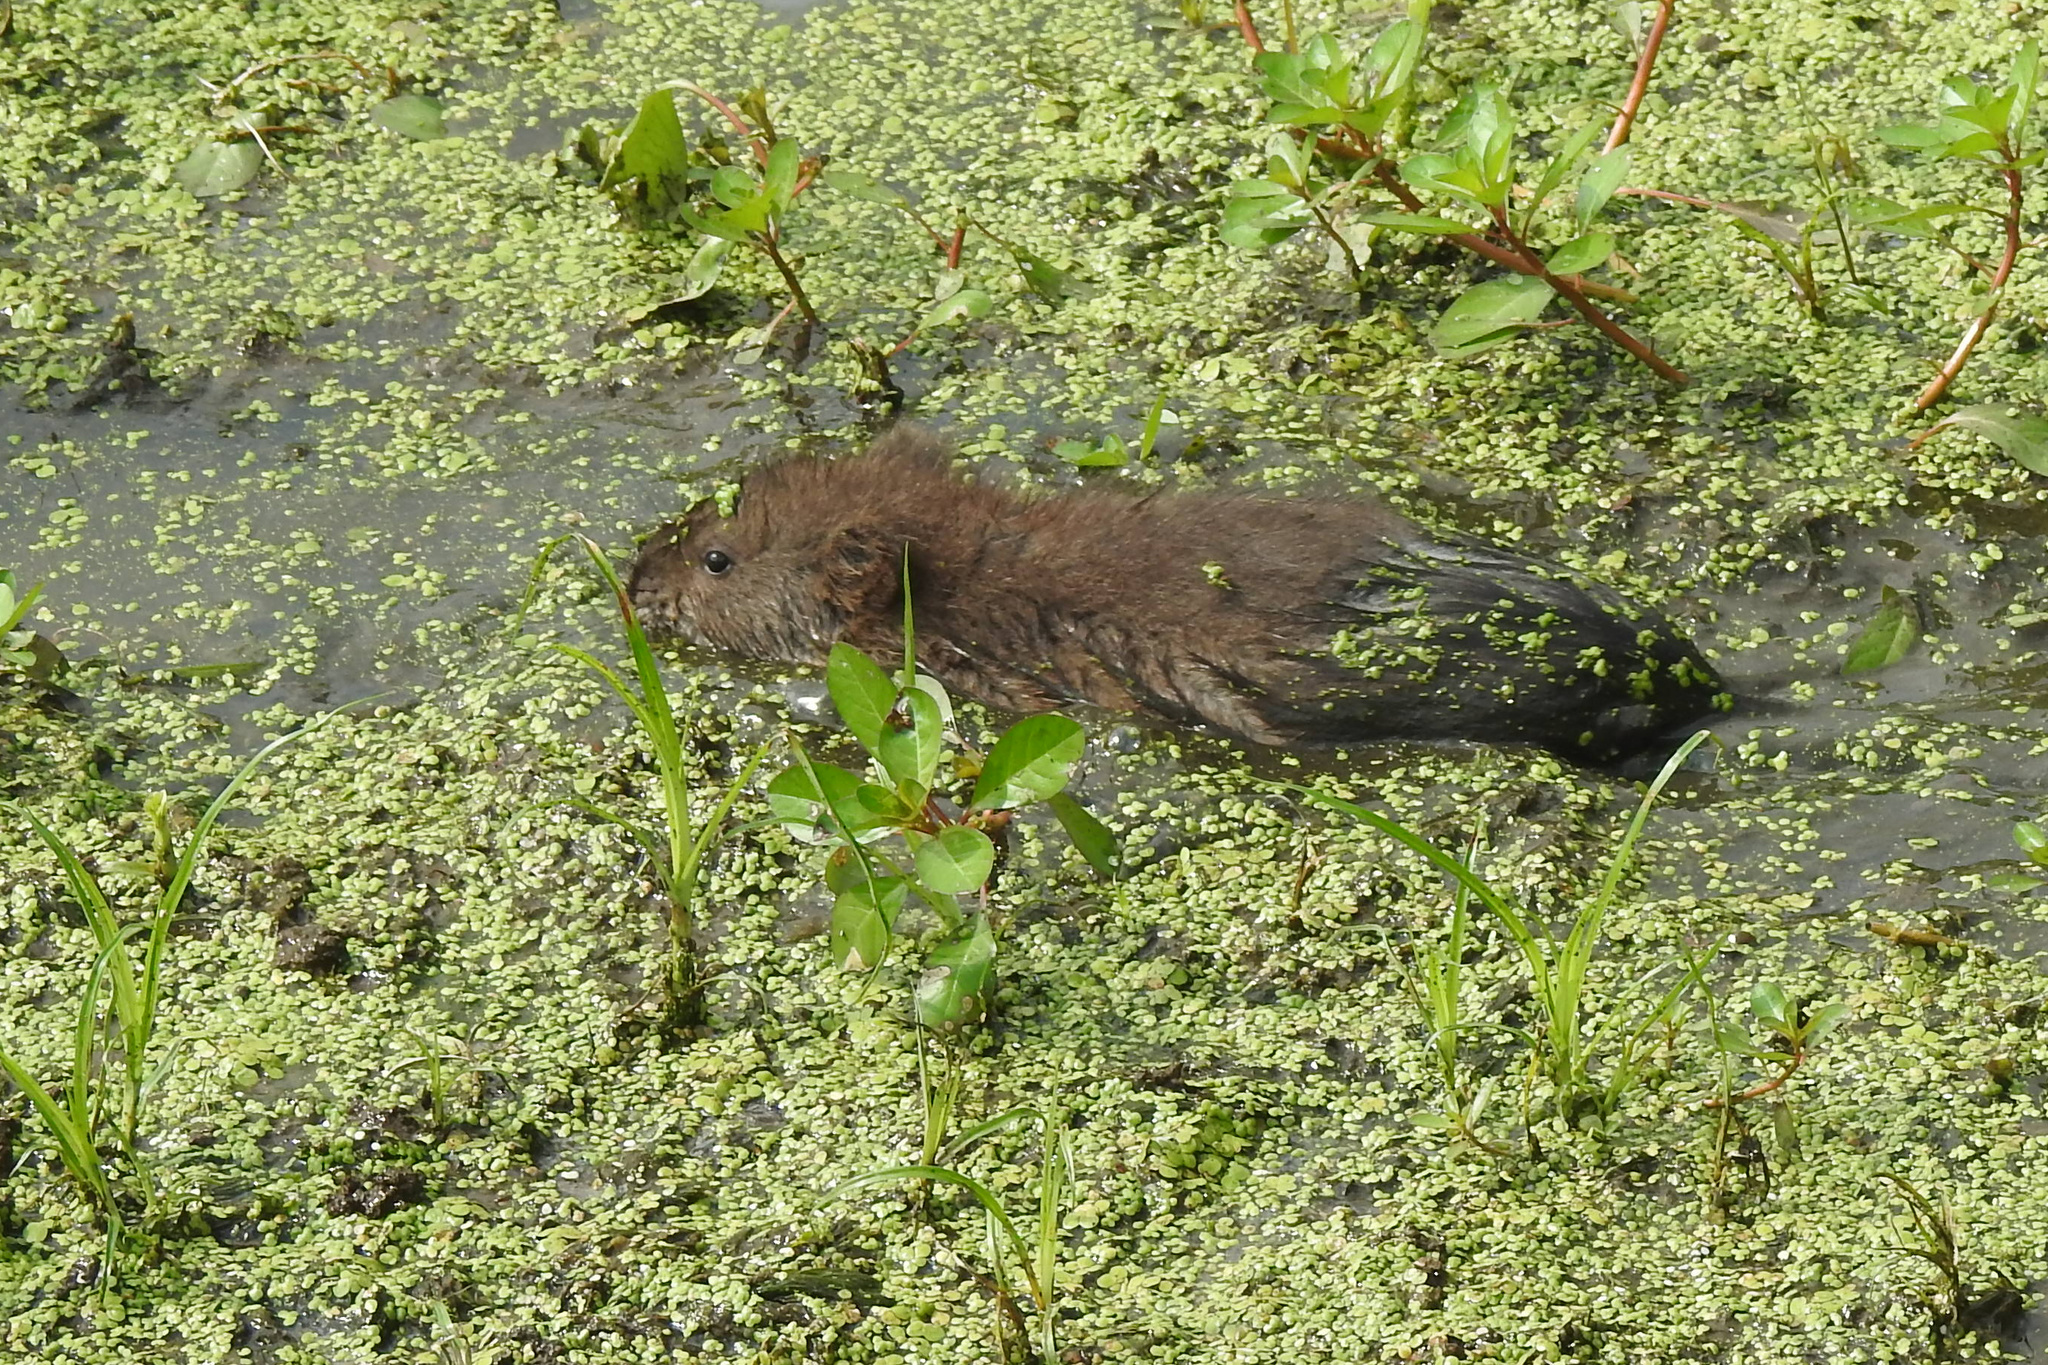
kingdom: Animalia
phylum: Chordata
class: Mammalia
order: Rodentia
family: Cricetidae
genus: Ondatra
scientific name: Ondatra zibethicus
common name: Muskrat
